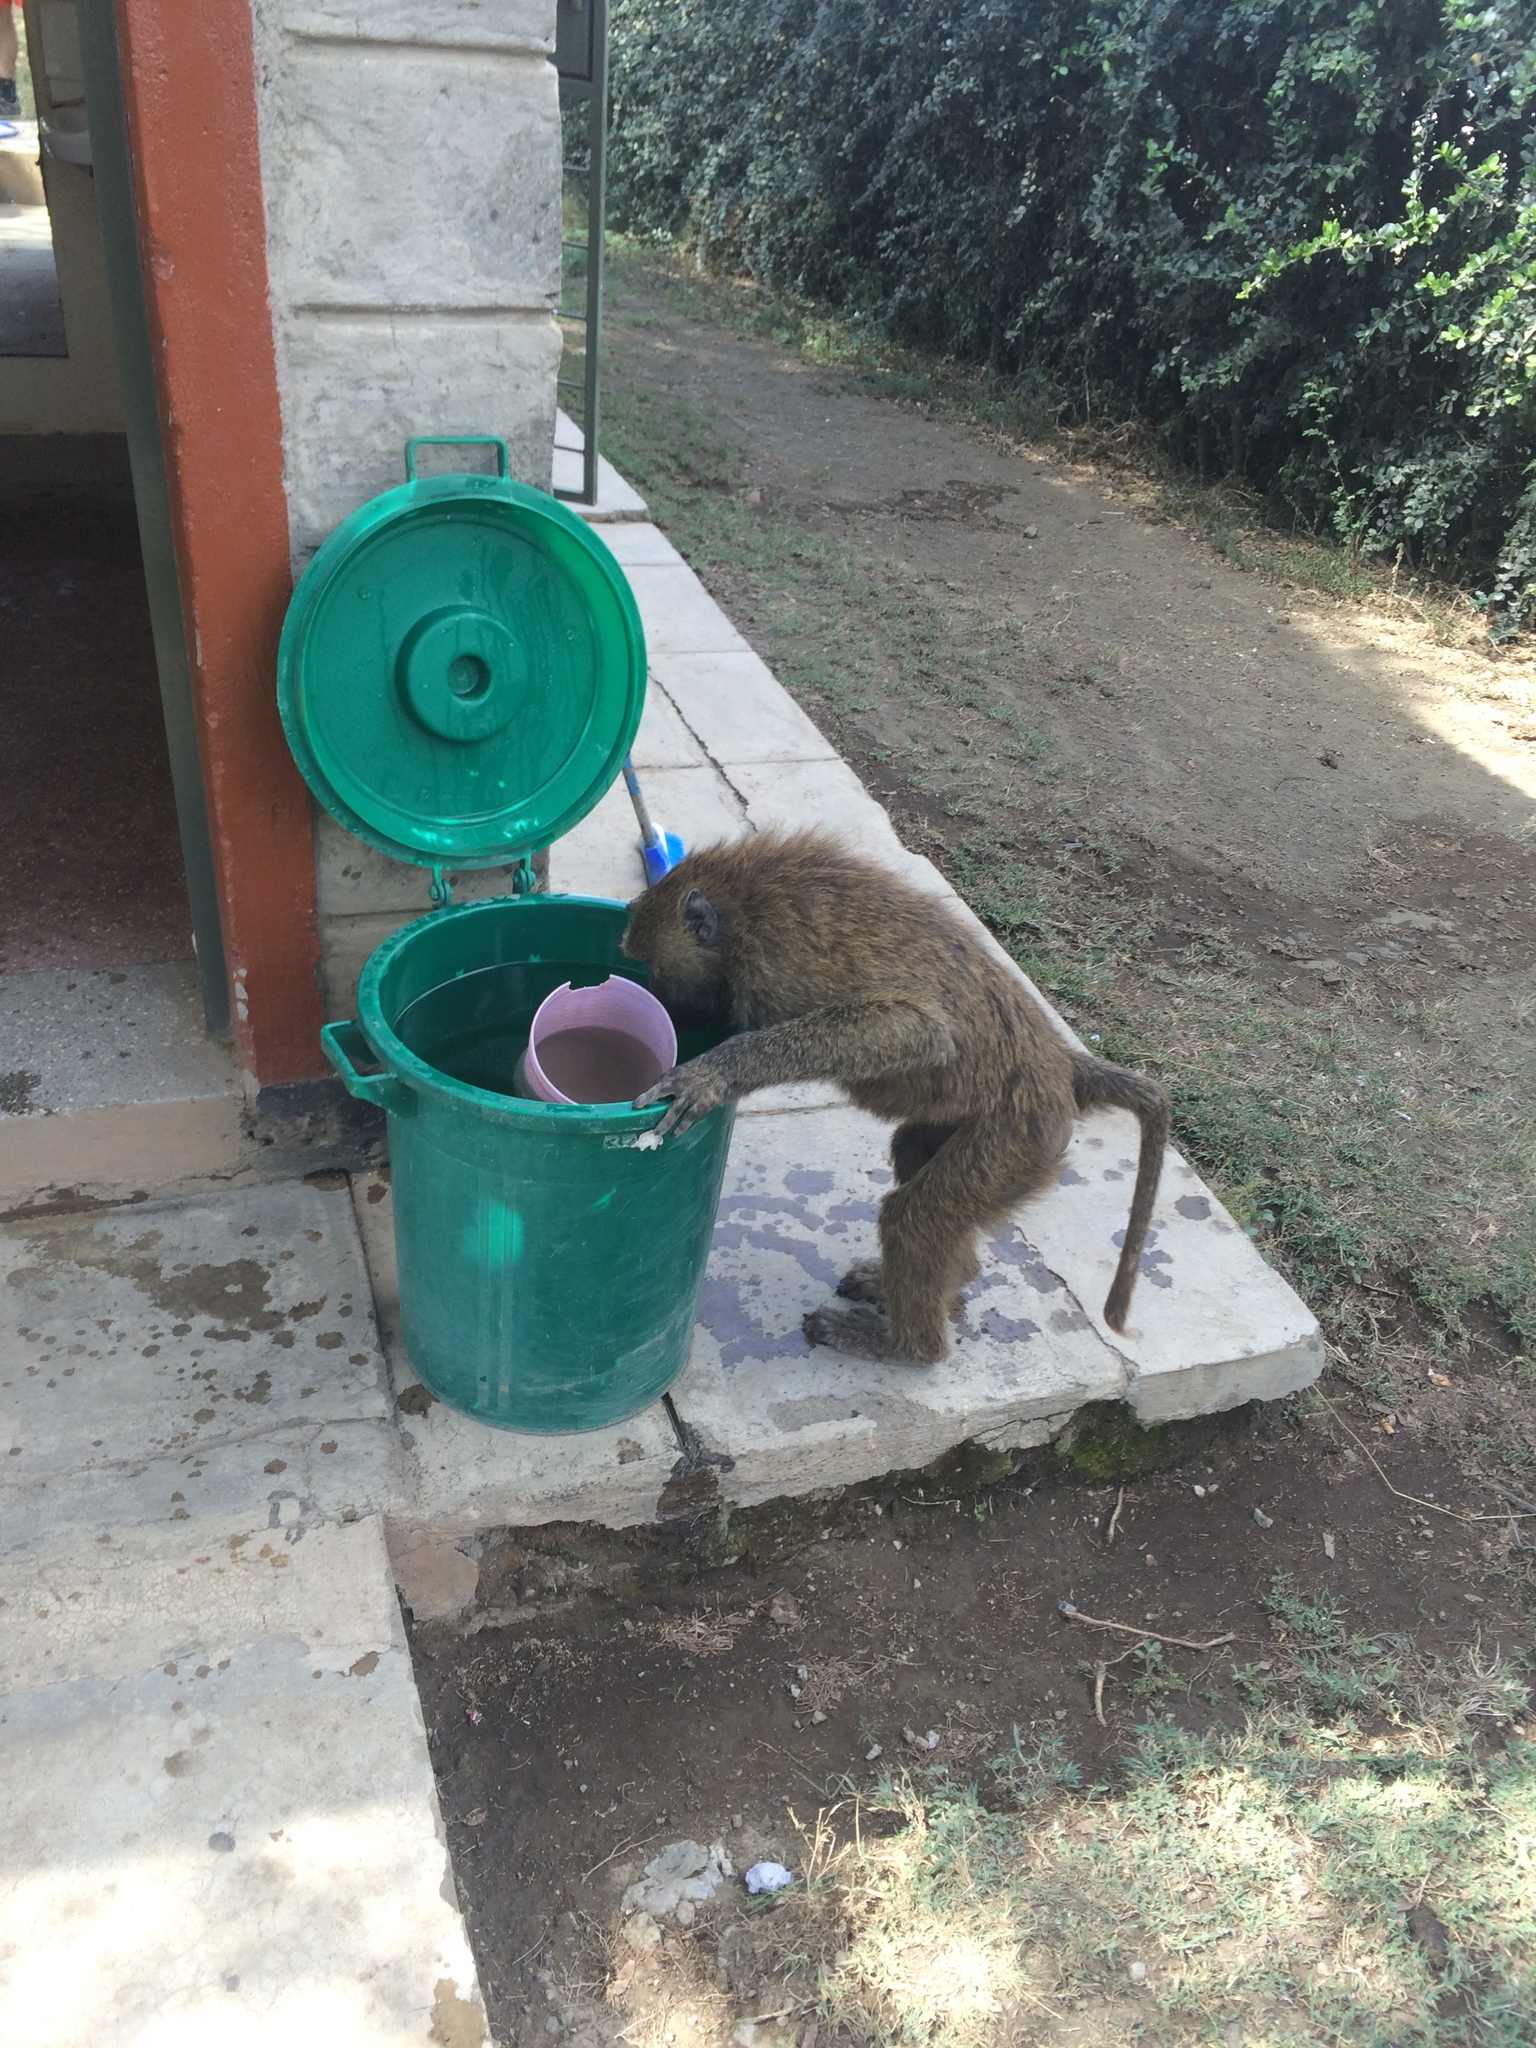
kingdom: Animalia
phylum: Chordata
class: Mammalia
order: Primates
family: Cercopithecidae
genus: Papio
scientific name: Papio anubis
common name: Olive baboon
